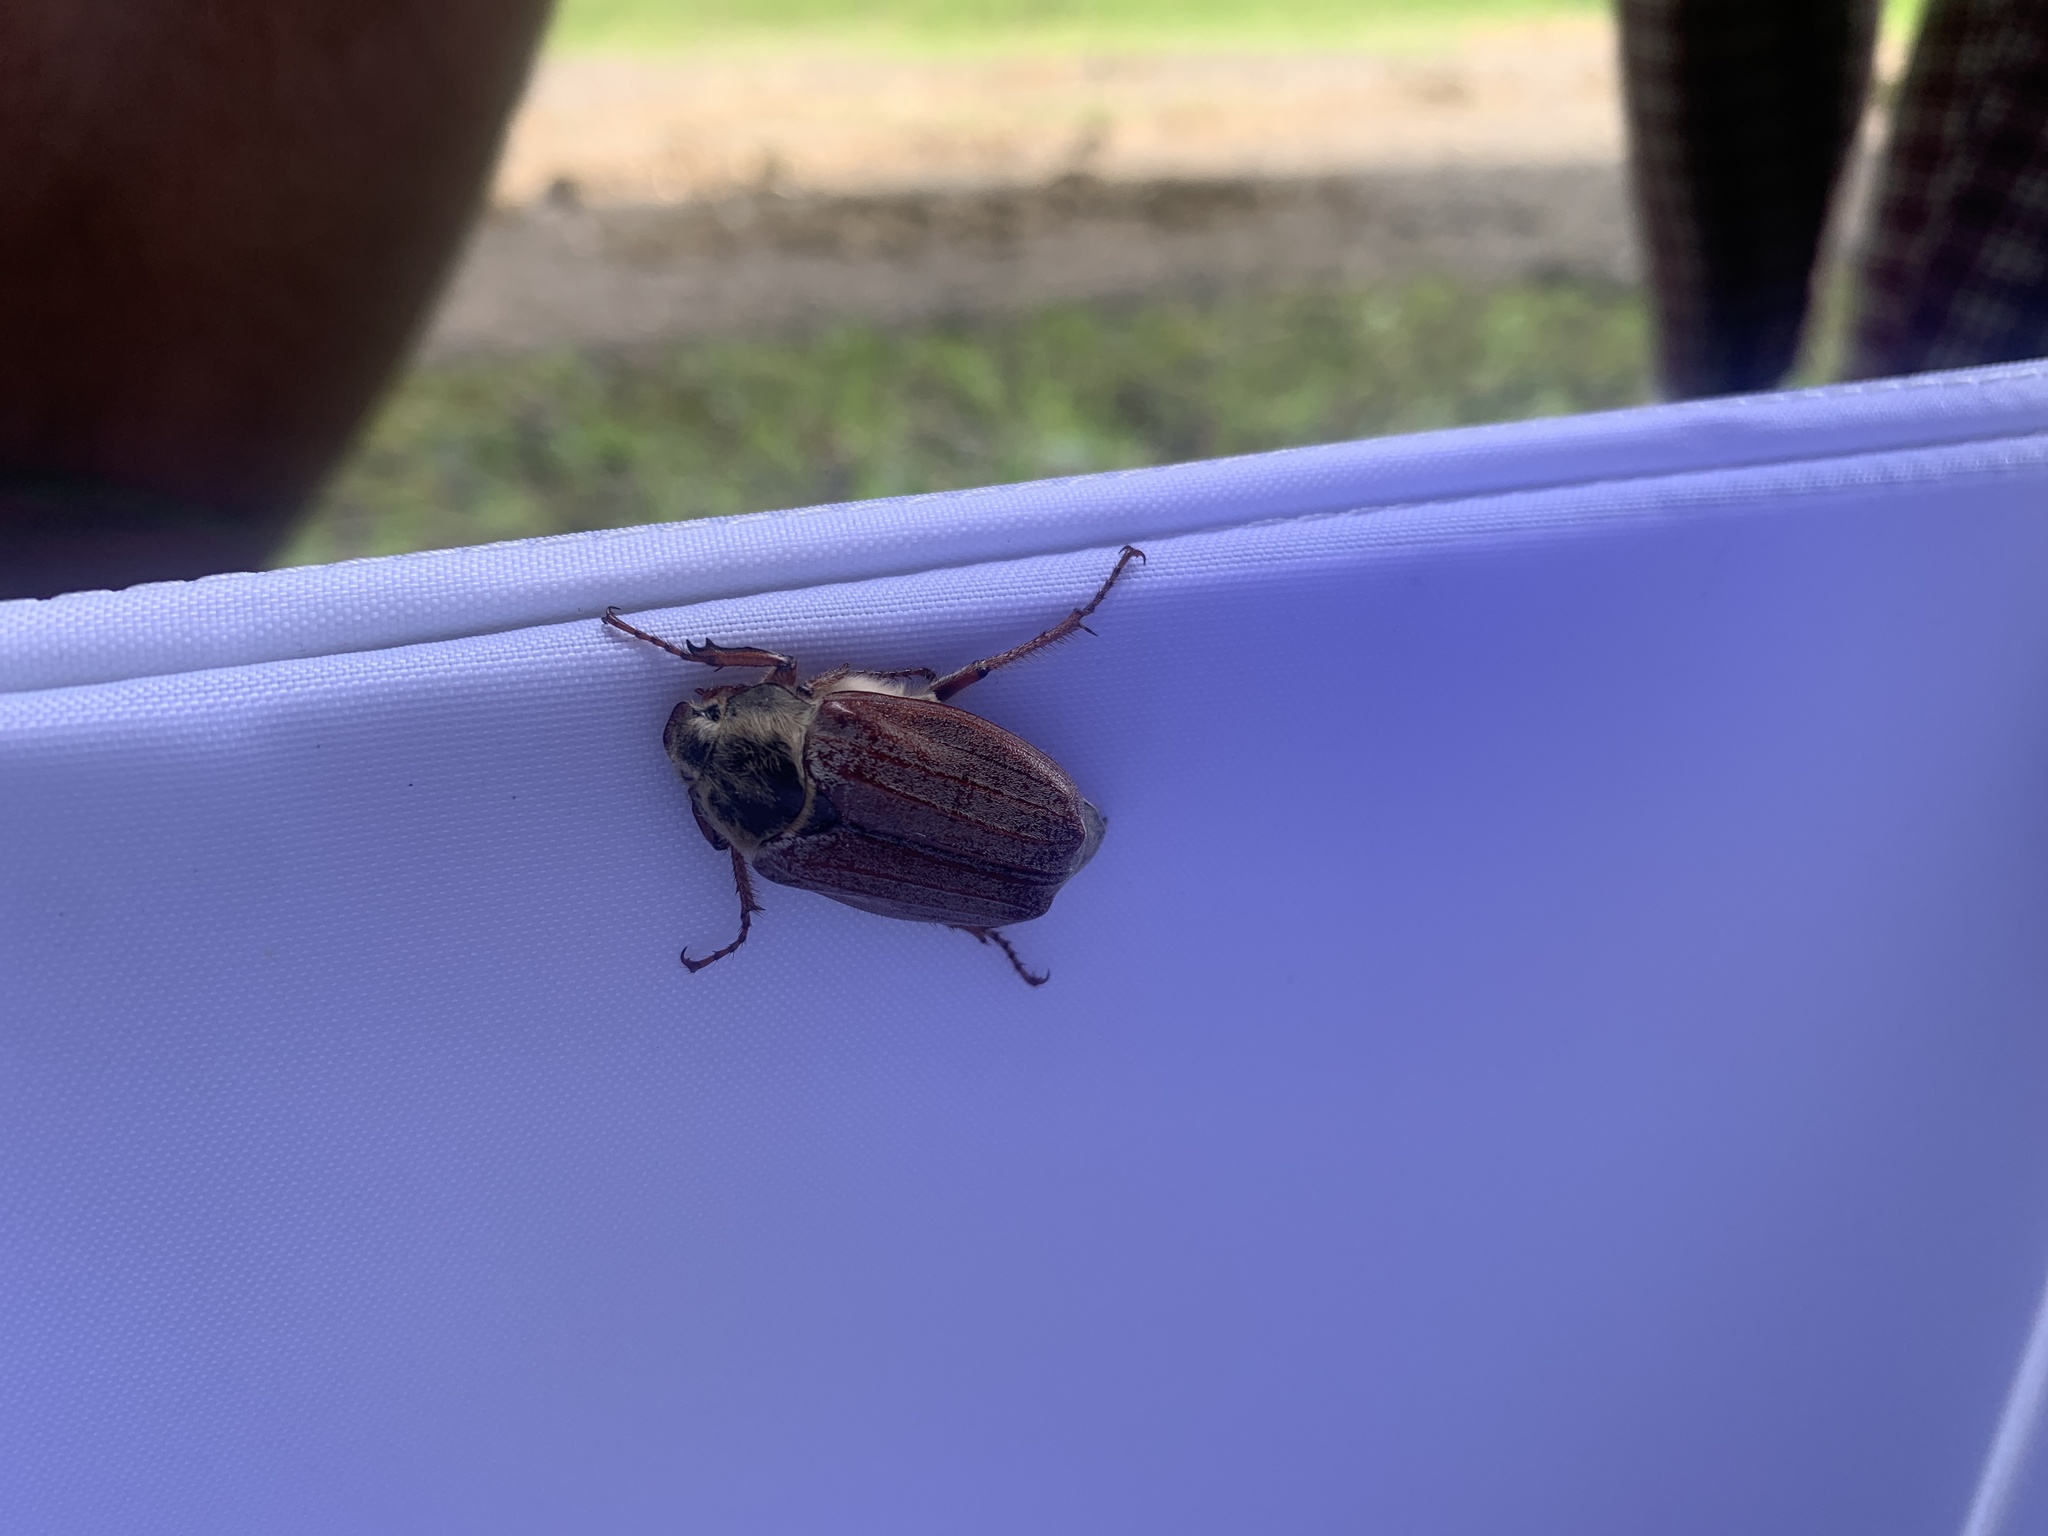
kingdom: Animalia
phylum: Arthropoda
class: Insecta
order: Coleoptera
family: Scarabaeidae
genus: Melolontha
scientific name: Melolontha melolontha
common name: Cockchafer maybeetle
